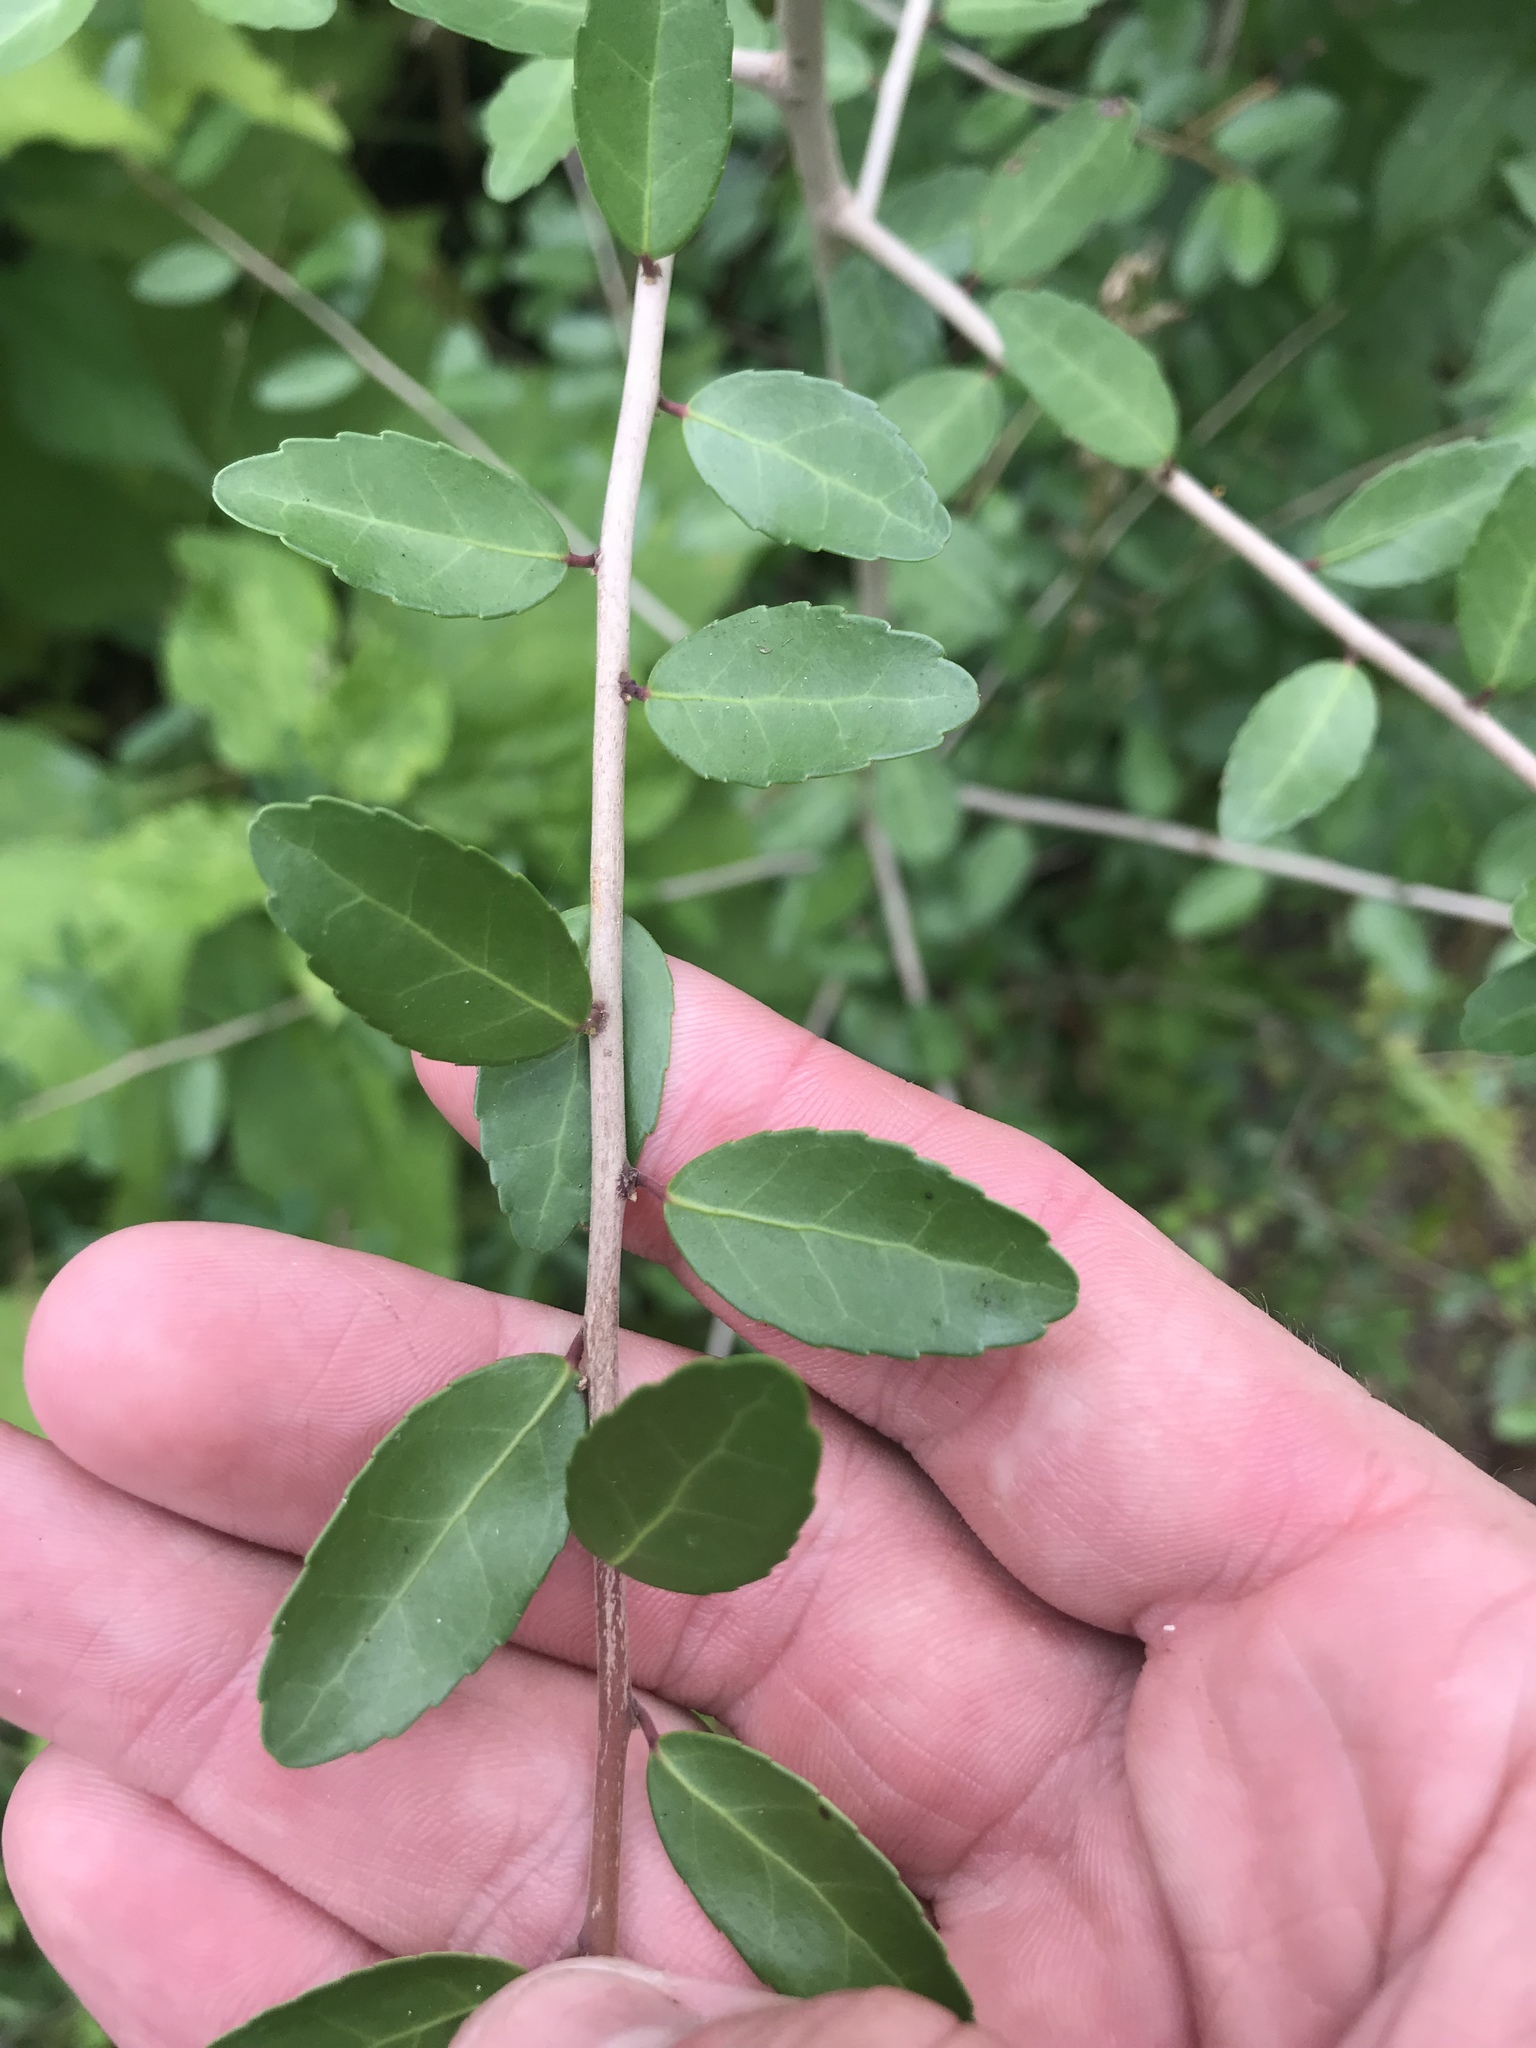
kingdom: Plantae
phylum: Tracheophyta
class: Magnoliopsida
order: Aquifoliales
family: Aquifoliaceae
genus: Ilex
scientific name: Ilex vomitoria
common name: Yaupon holly
